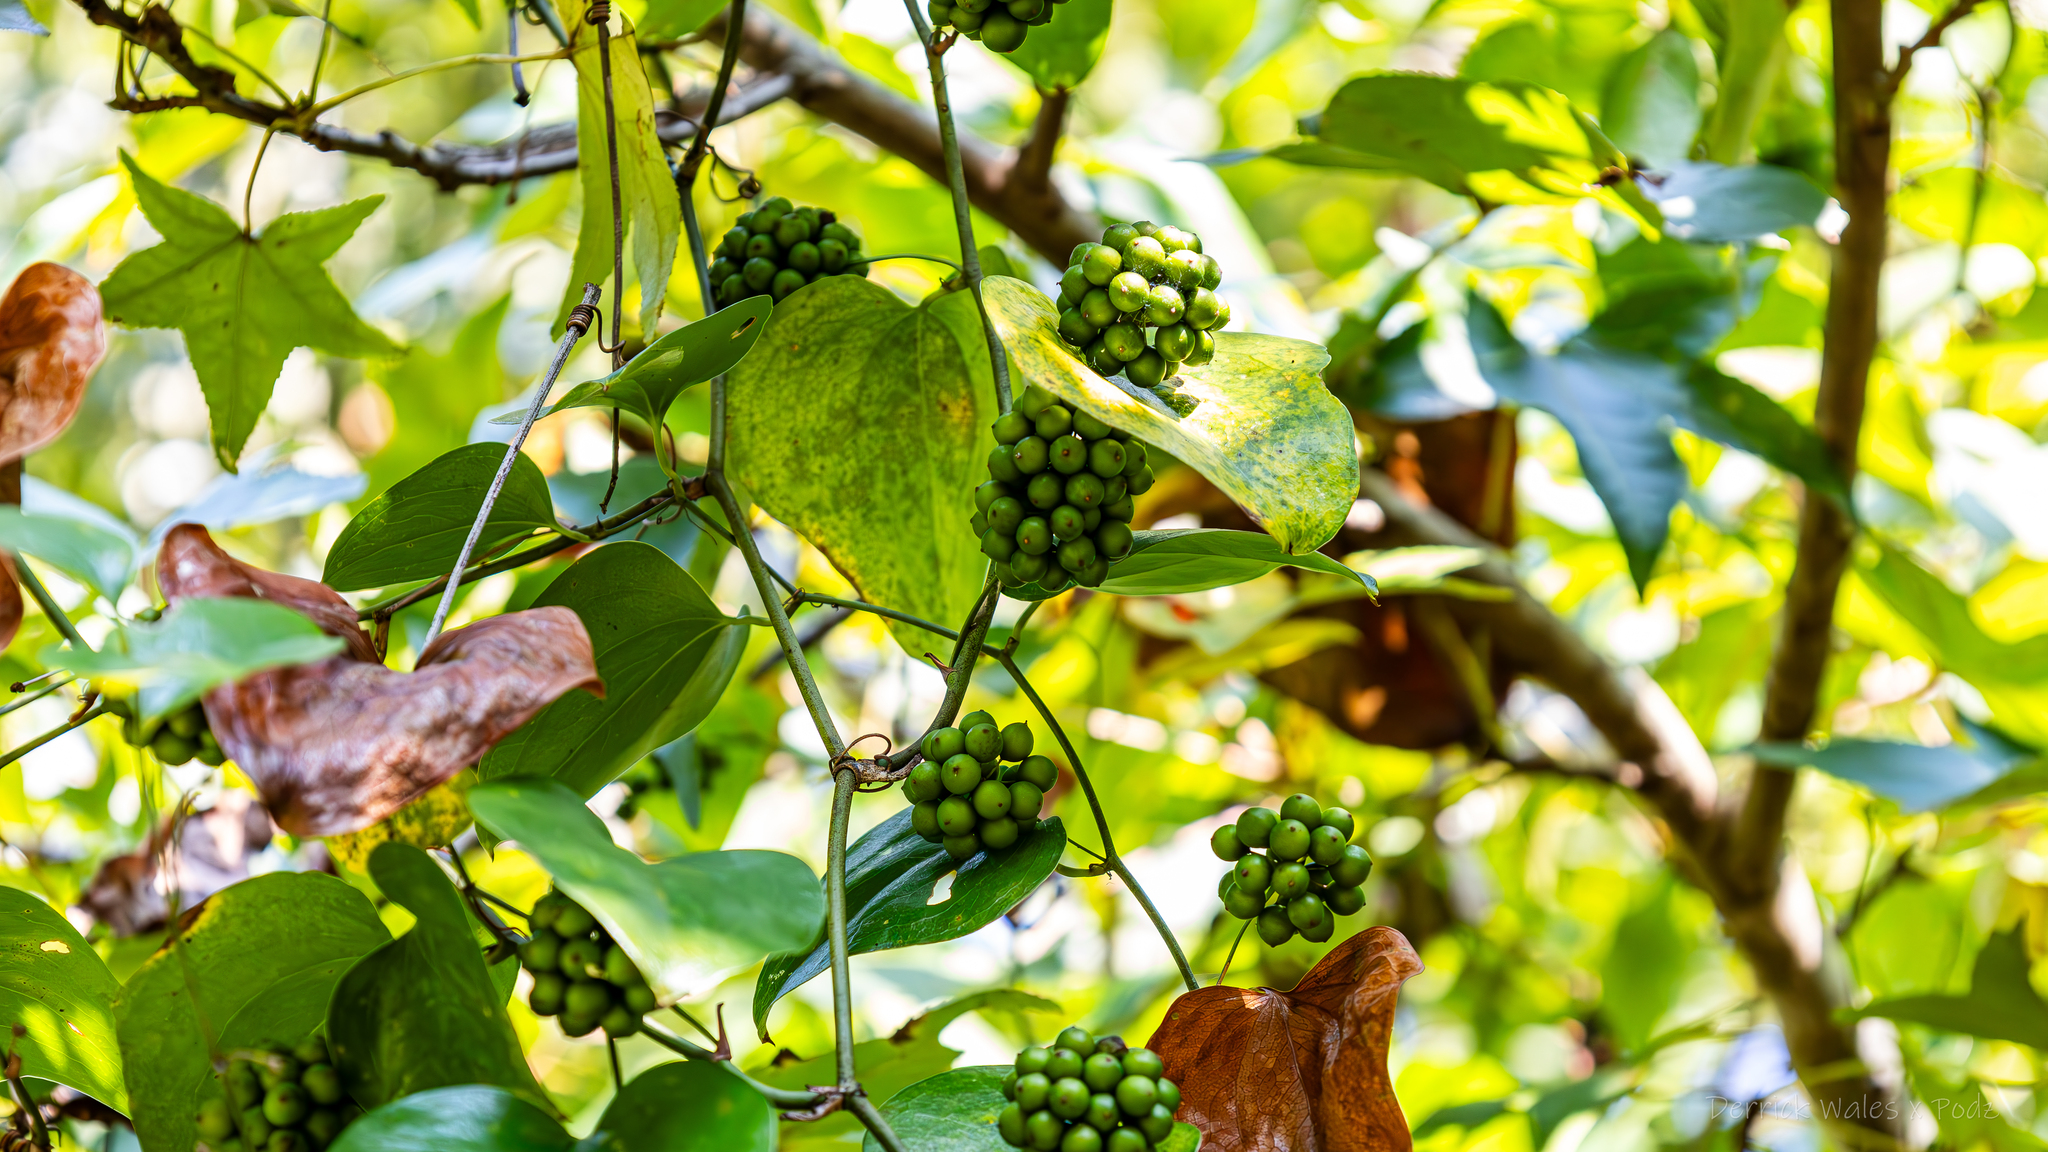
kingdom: Plantae
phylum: Tracheophyta
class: Liliopsida
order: Liliales
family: Smilacaceae
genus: Smilax
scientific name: Smilax rotundifolia
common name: Bullbriar
